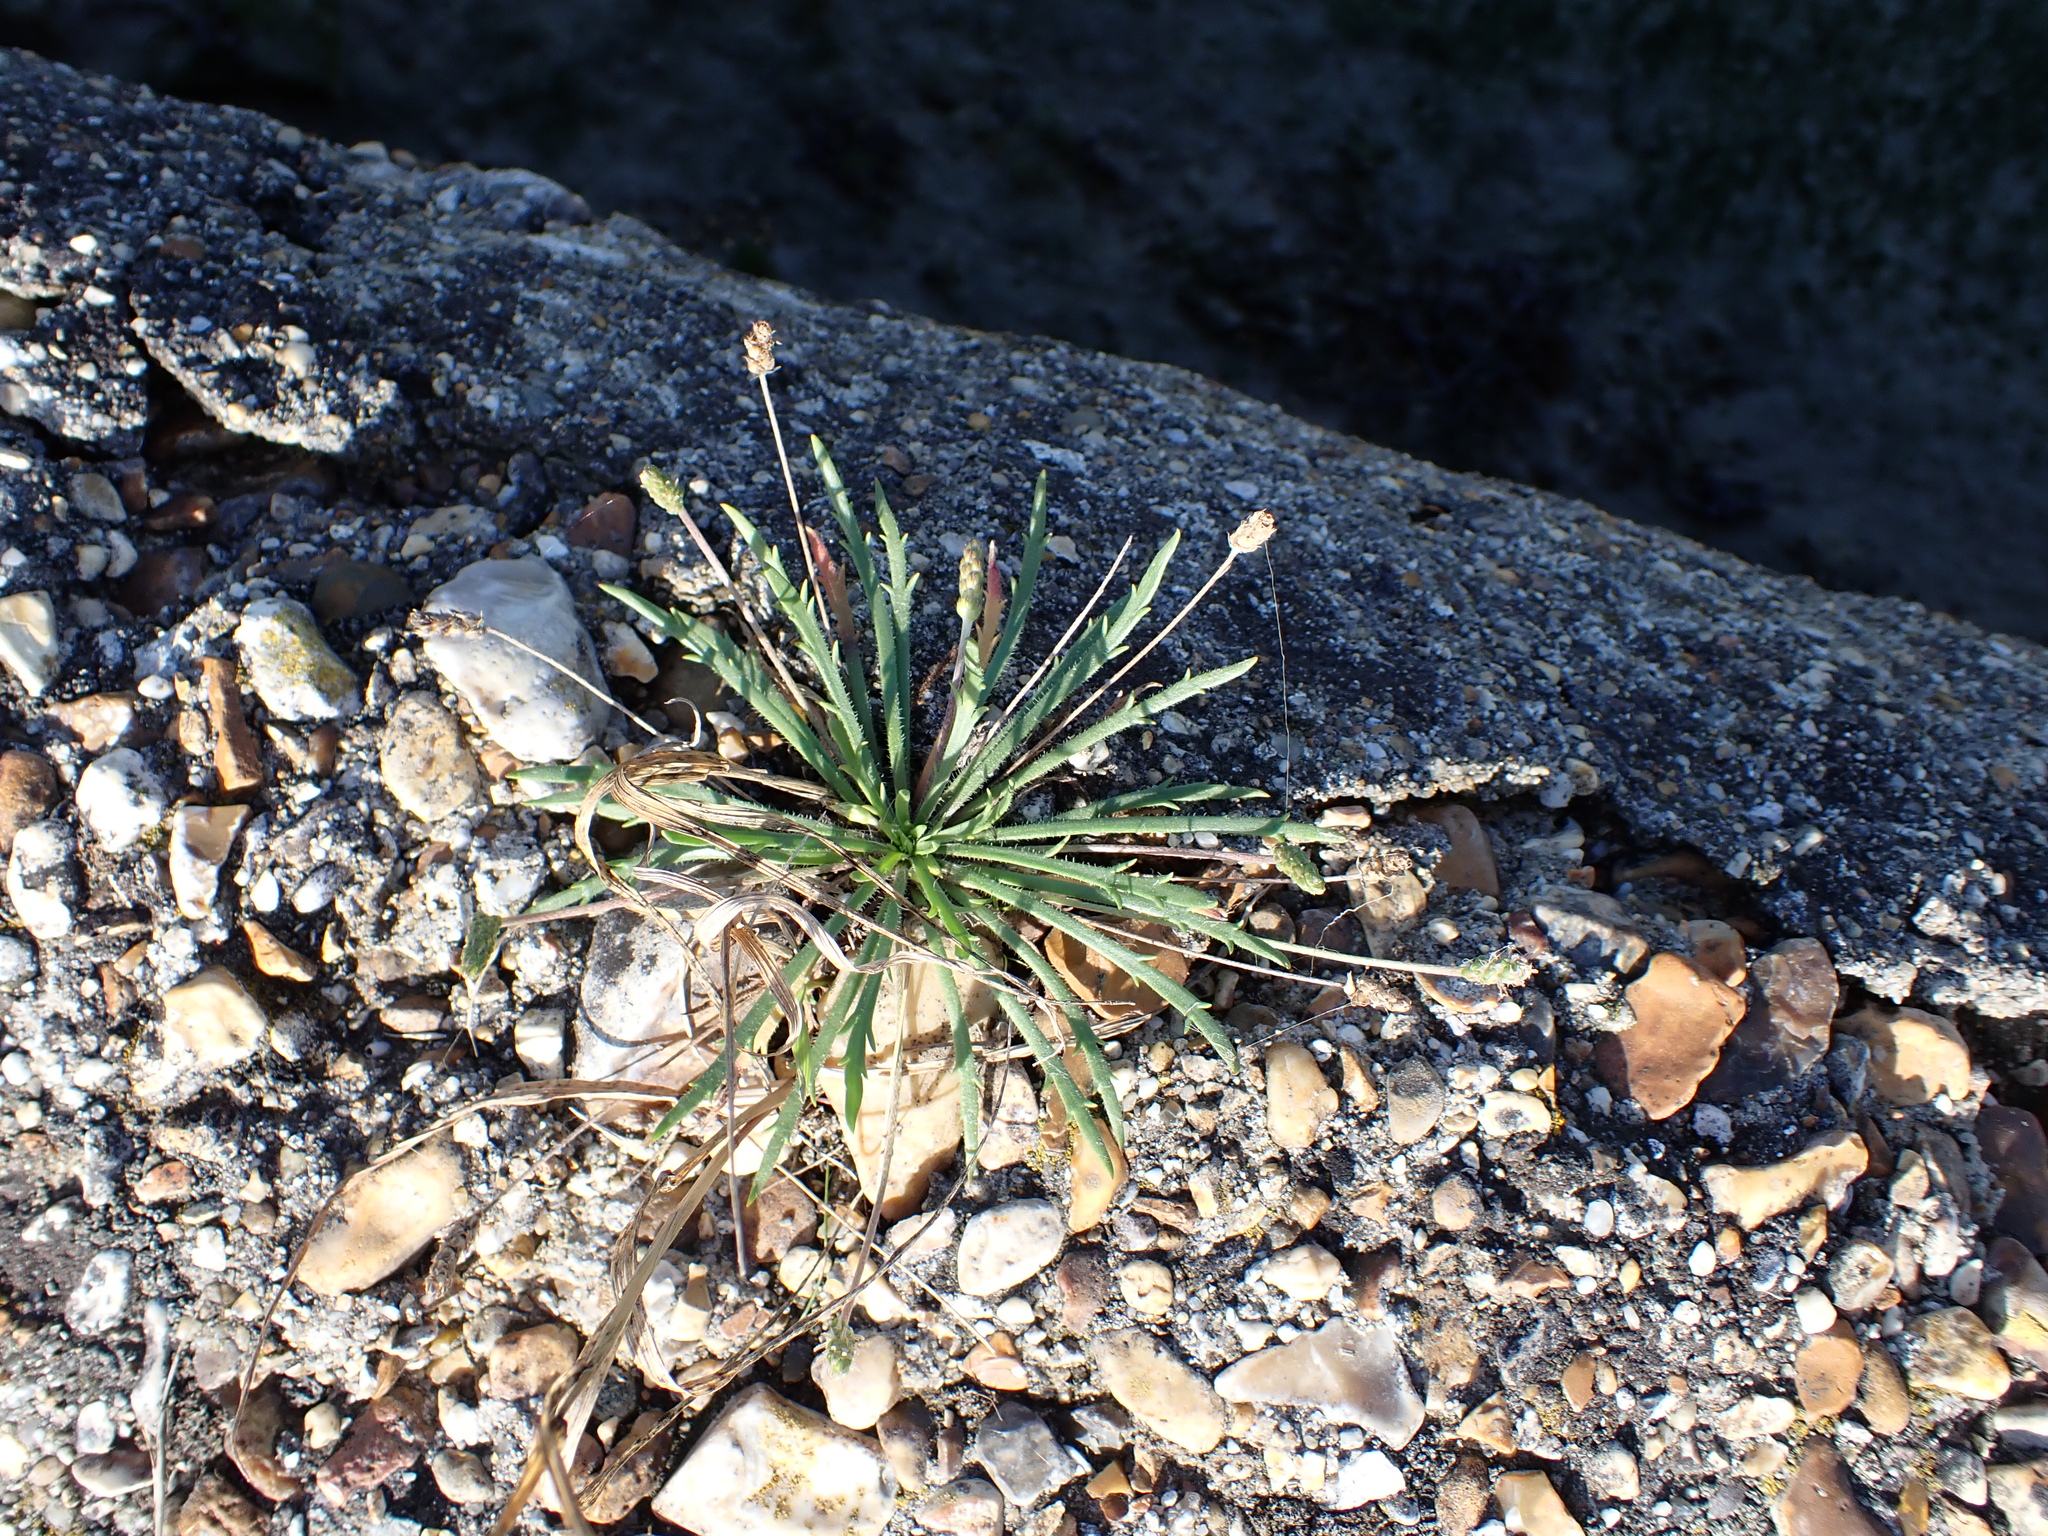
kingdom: Plantae
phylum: Tracheophyta
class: Magnoliopsida
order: Lamiales
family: Plantaginaceae
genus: Plantago
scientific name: Plantago coronopus
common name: Buck's-horn plantain
